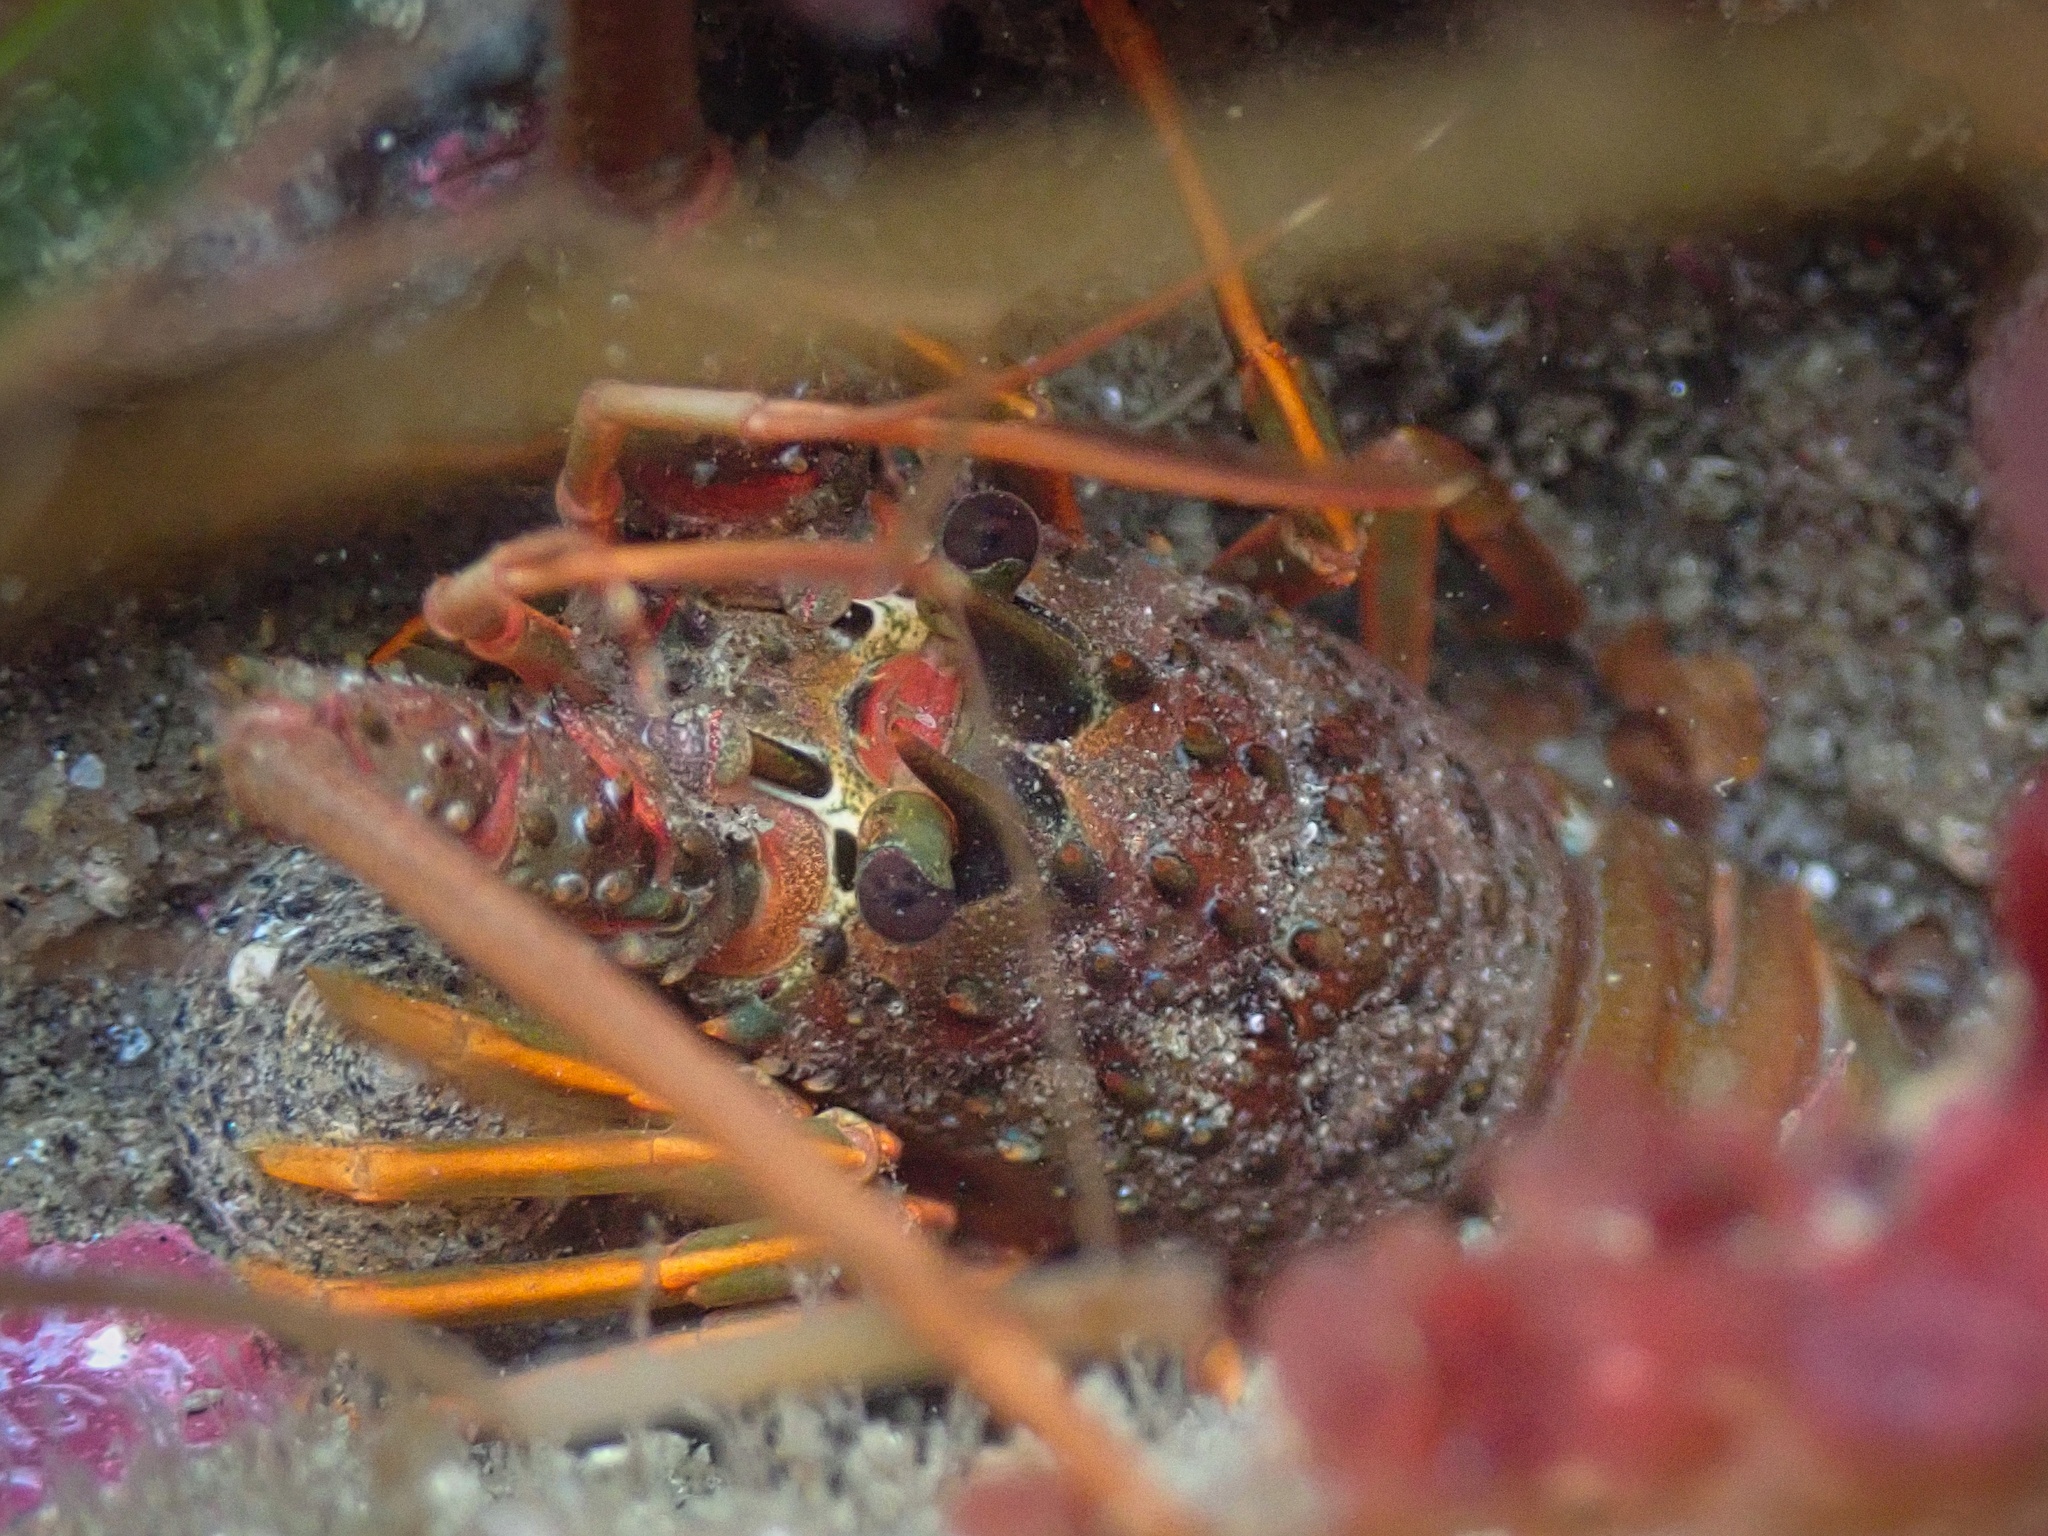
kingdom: Animalia
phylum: Arthropoda
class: Malacostraca
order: Decapoda
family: Palinuridae
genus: Panulirus
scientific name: Panulirus interruptus
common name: California spiny lobster
